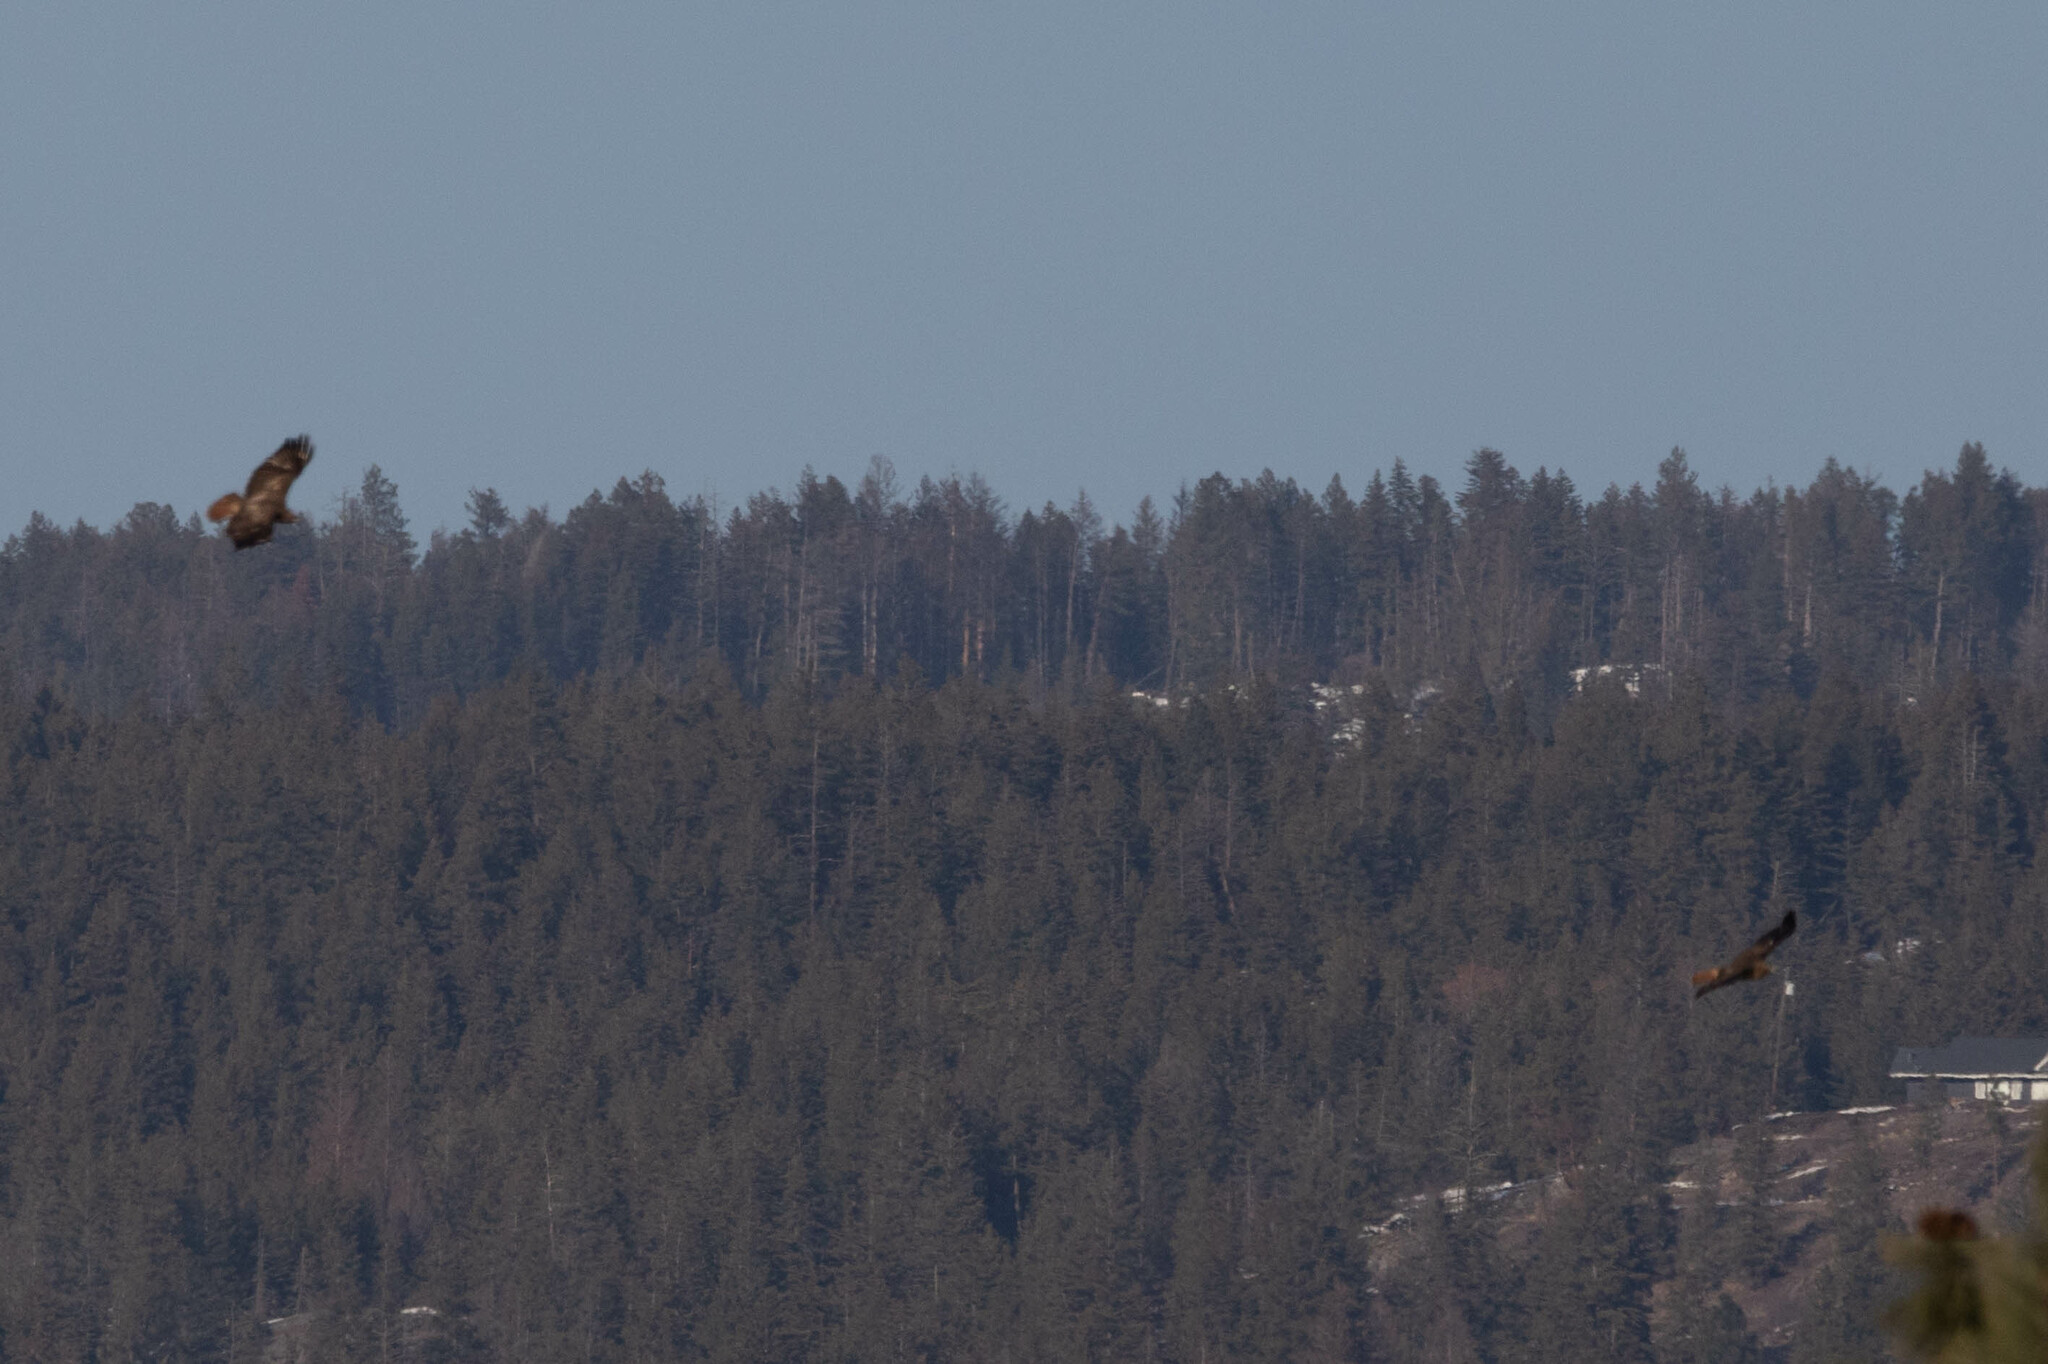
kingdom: Animalia
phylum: Chordata
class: Aves
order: Accipitriformes
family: Accipitridae
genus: Buteo
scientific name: Buteo jamaicensis
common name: Red-tailed hawk
